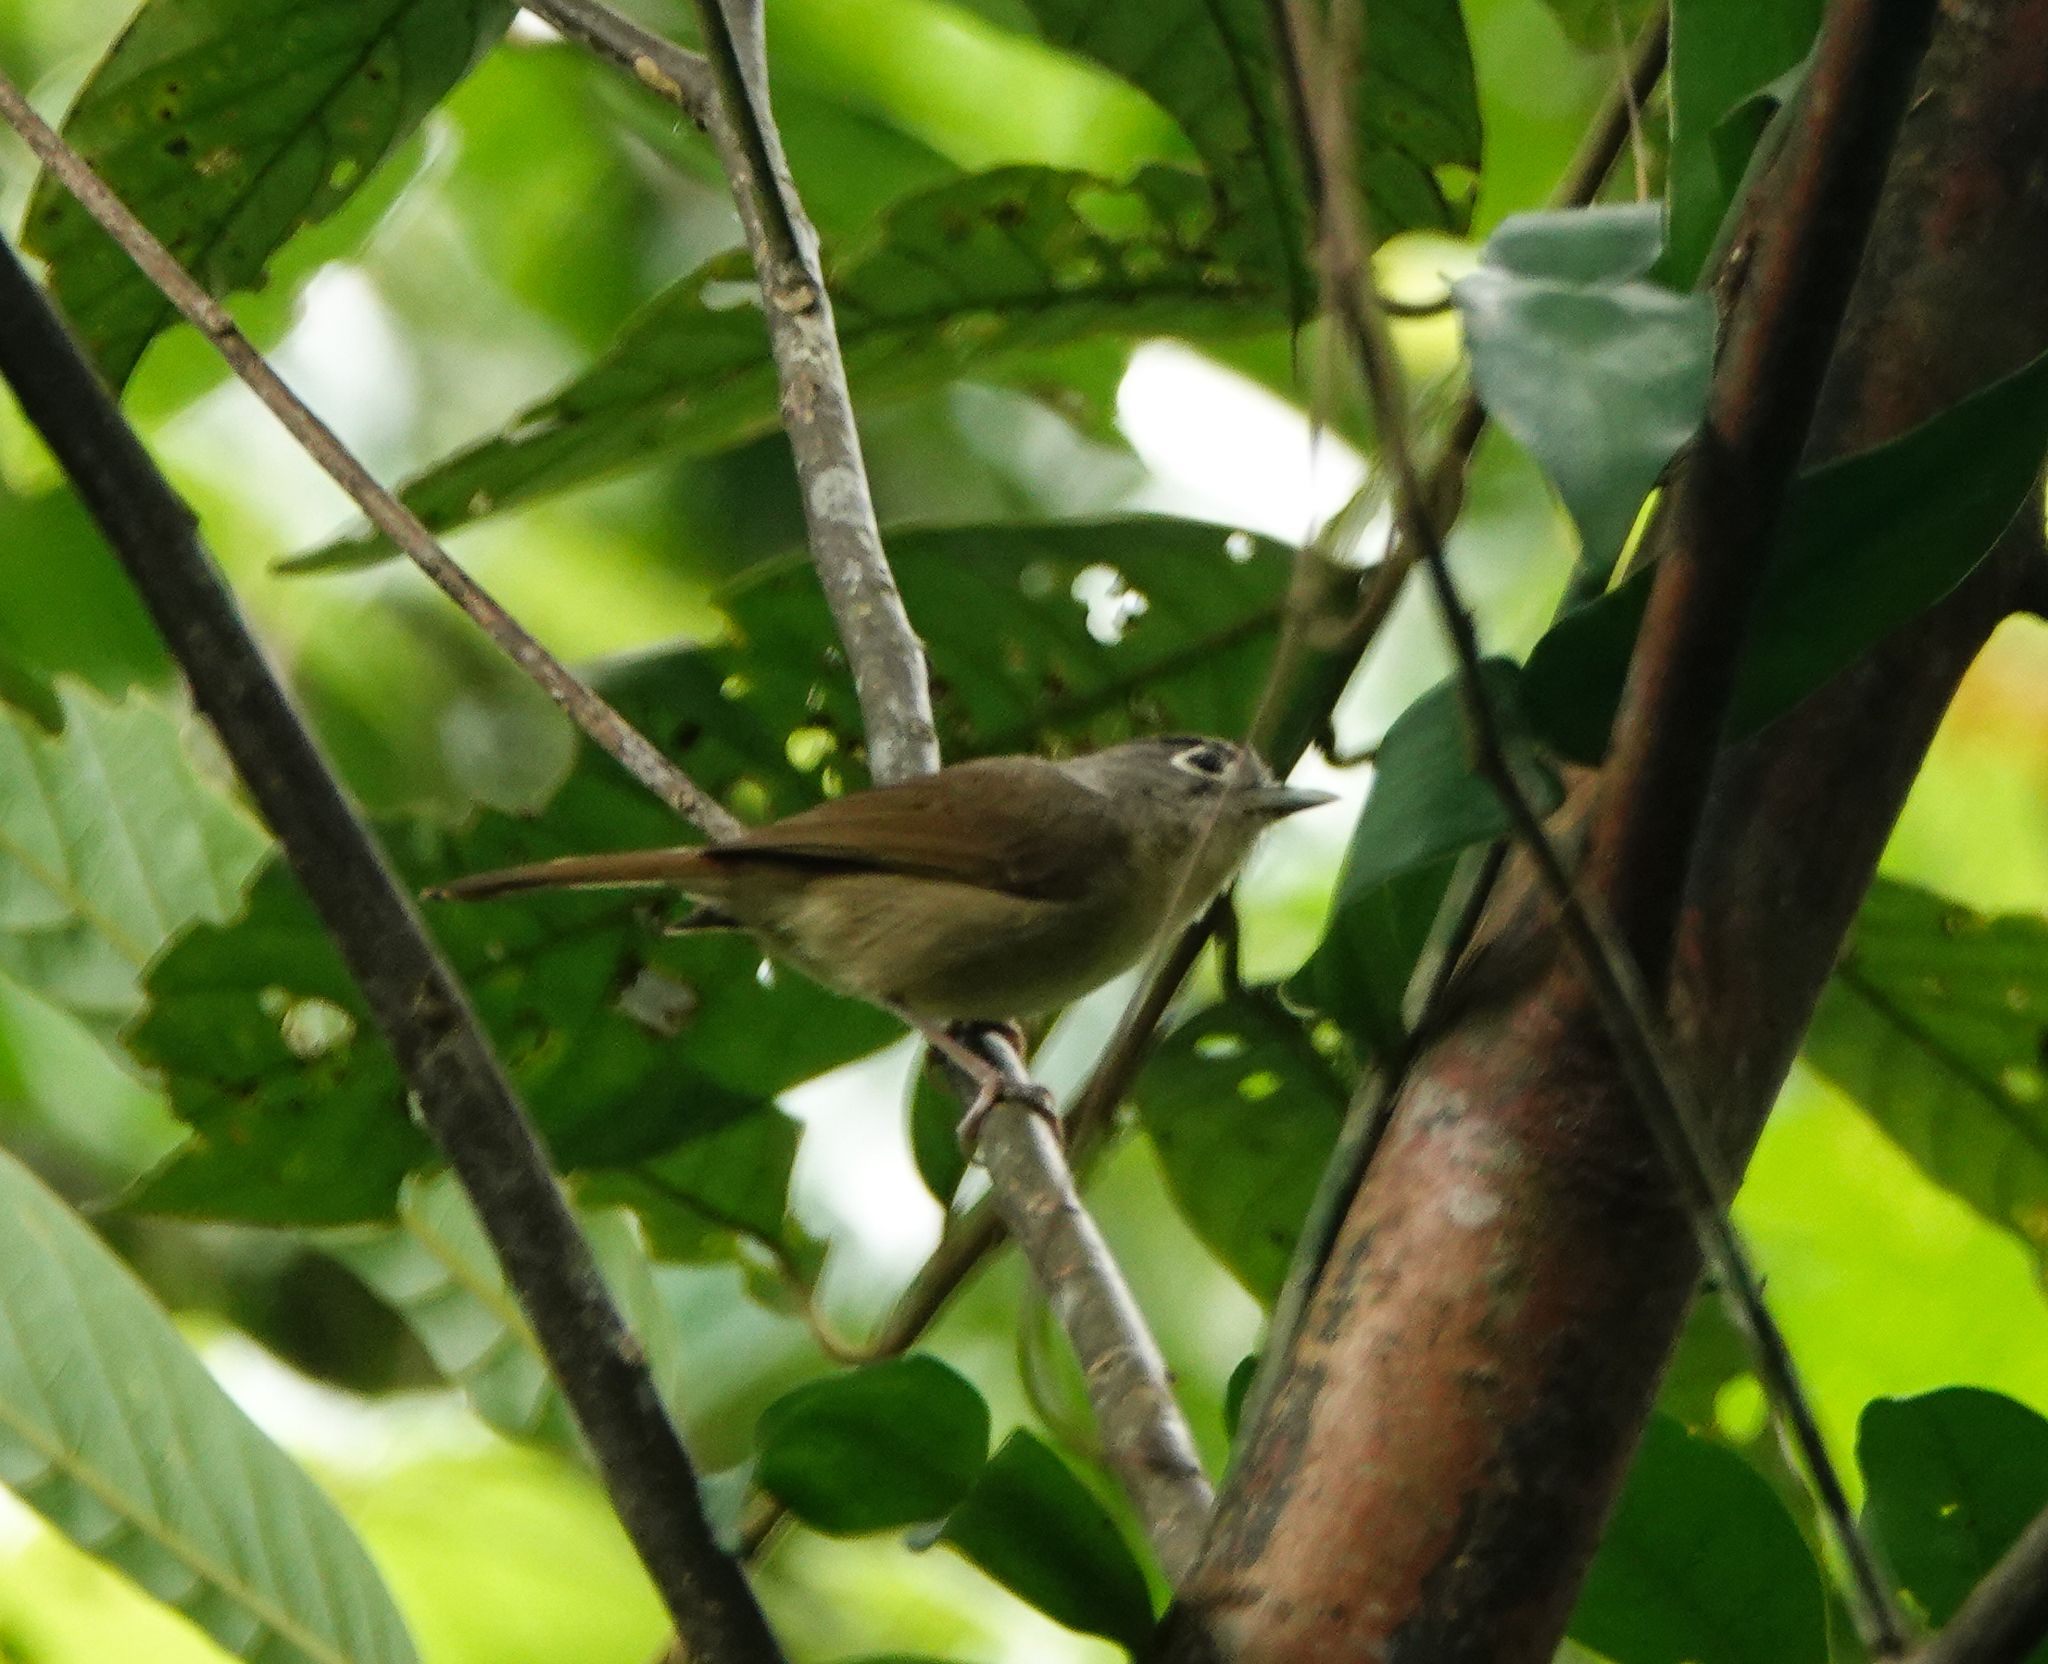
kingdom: Animalia
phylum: Chordata
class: Aves
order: Passeriformes
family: Pellorneidae
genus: Alcippe
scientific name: Alcippe nipalensis
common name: Nepal fulvetta
